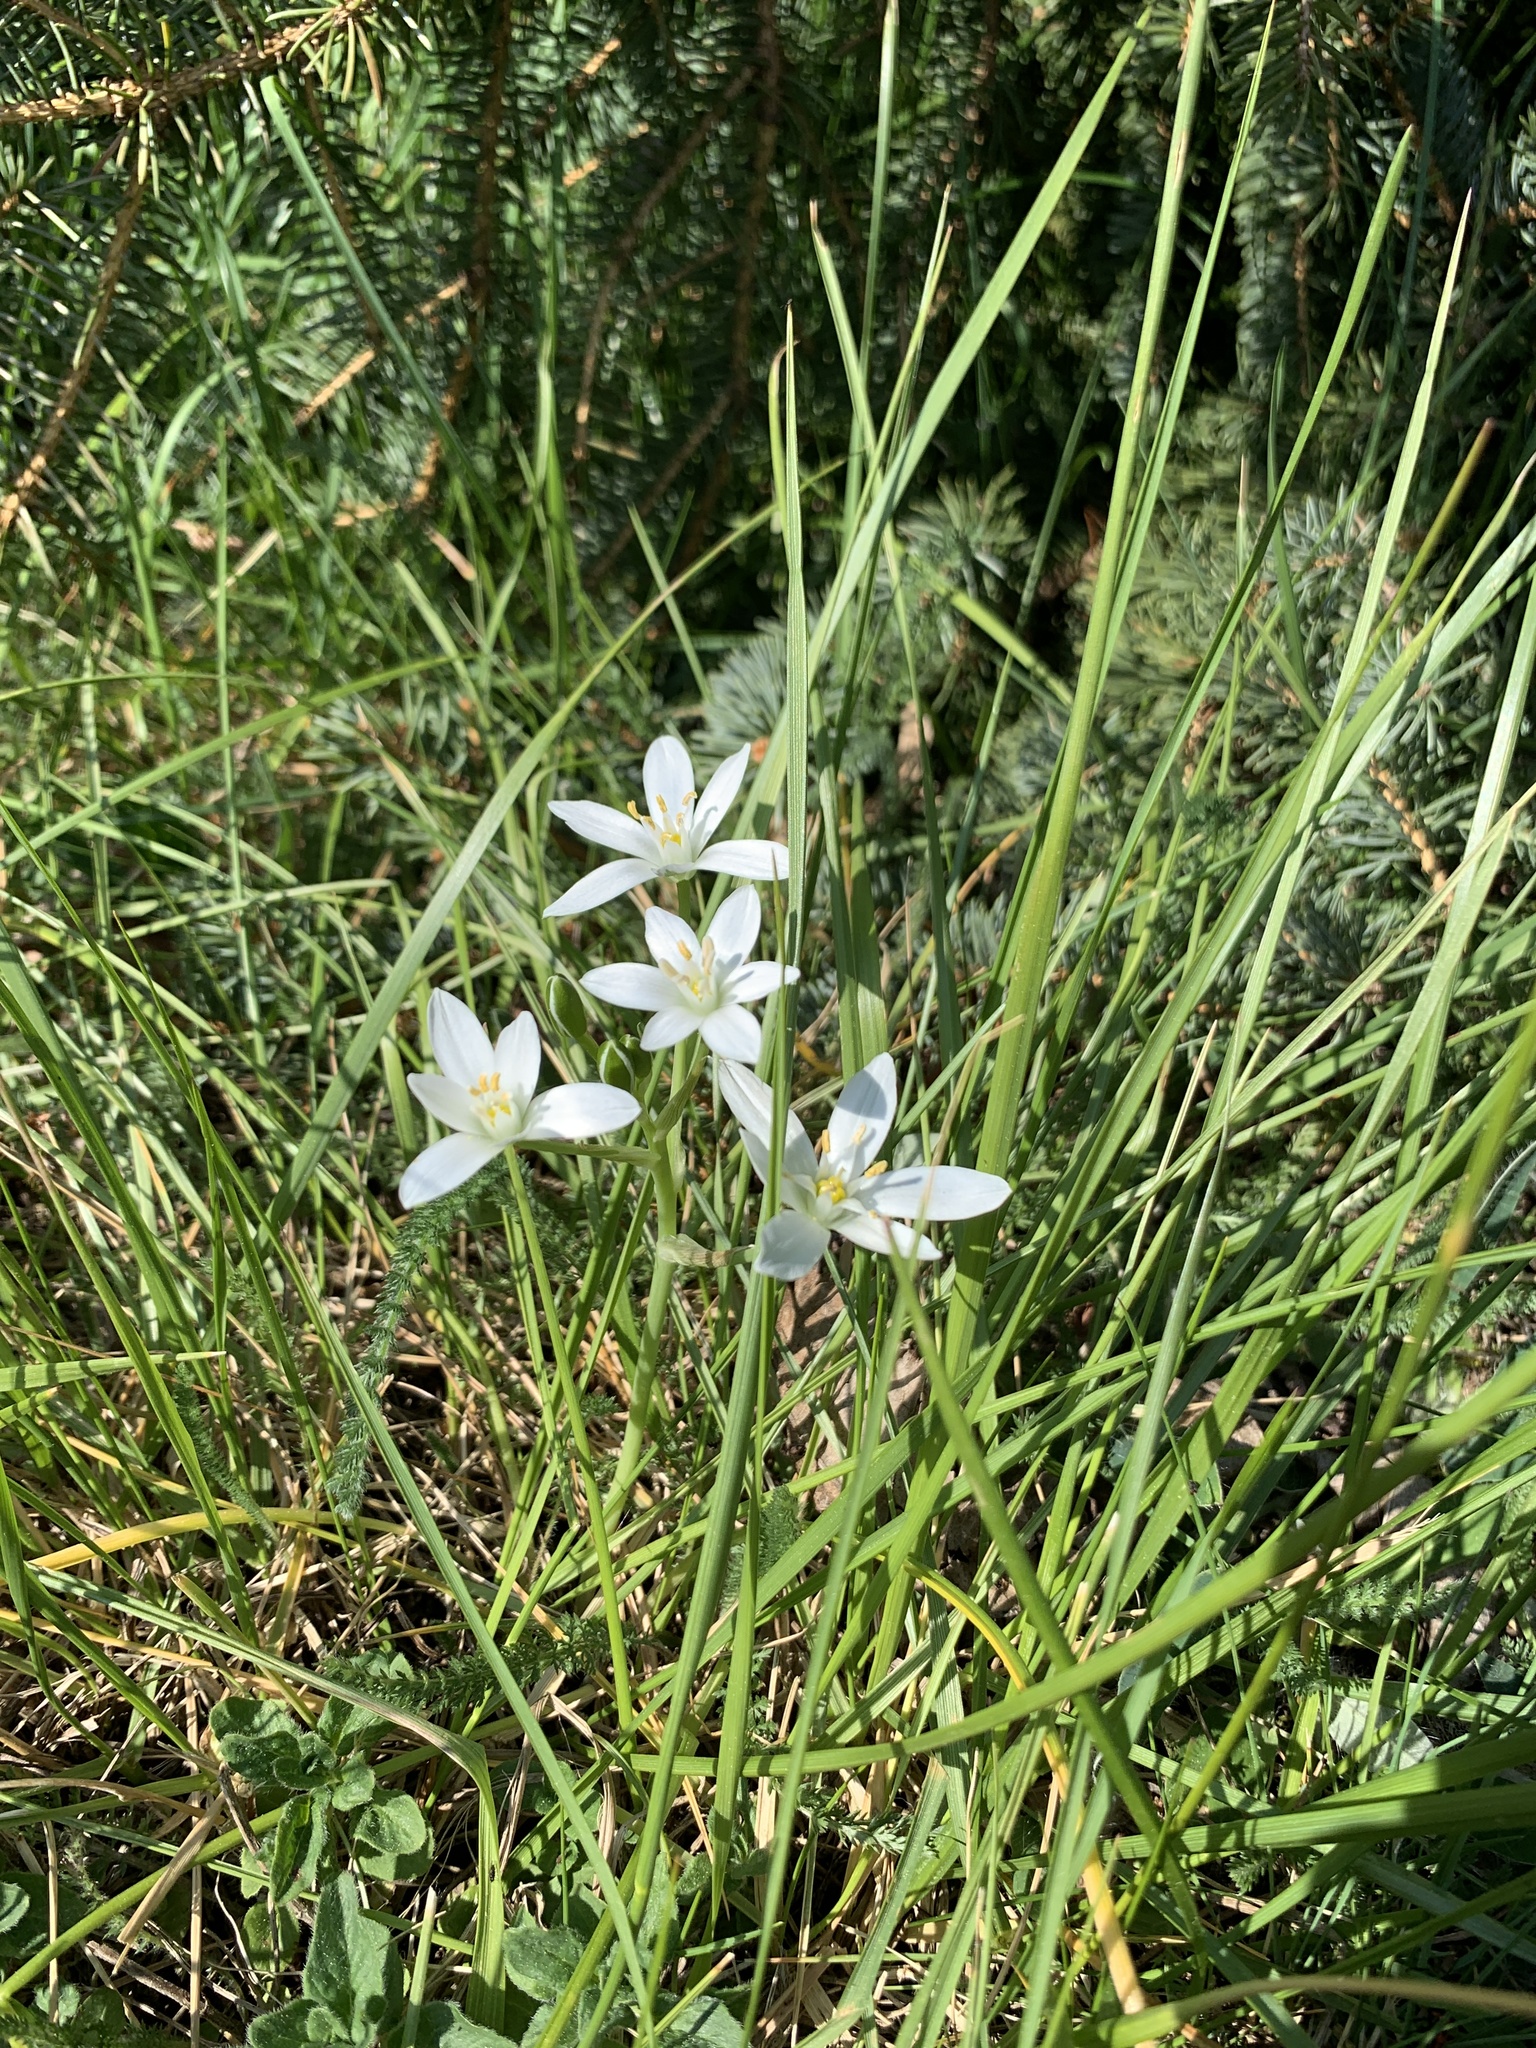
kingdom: Plantae
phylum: Tracheophyta
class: Liliopsida
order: Asparagales
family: Asparagaceae
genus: Ornithogalum
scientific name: Ornithogalum umbellatum
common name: Garden star-of-bethlehem
